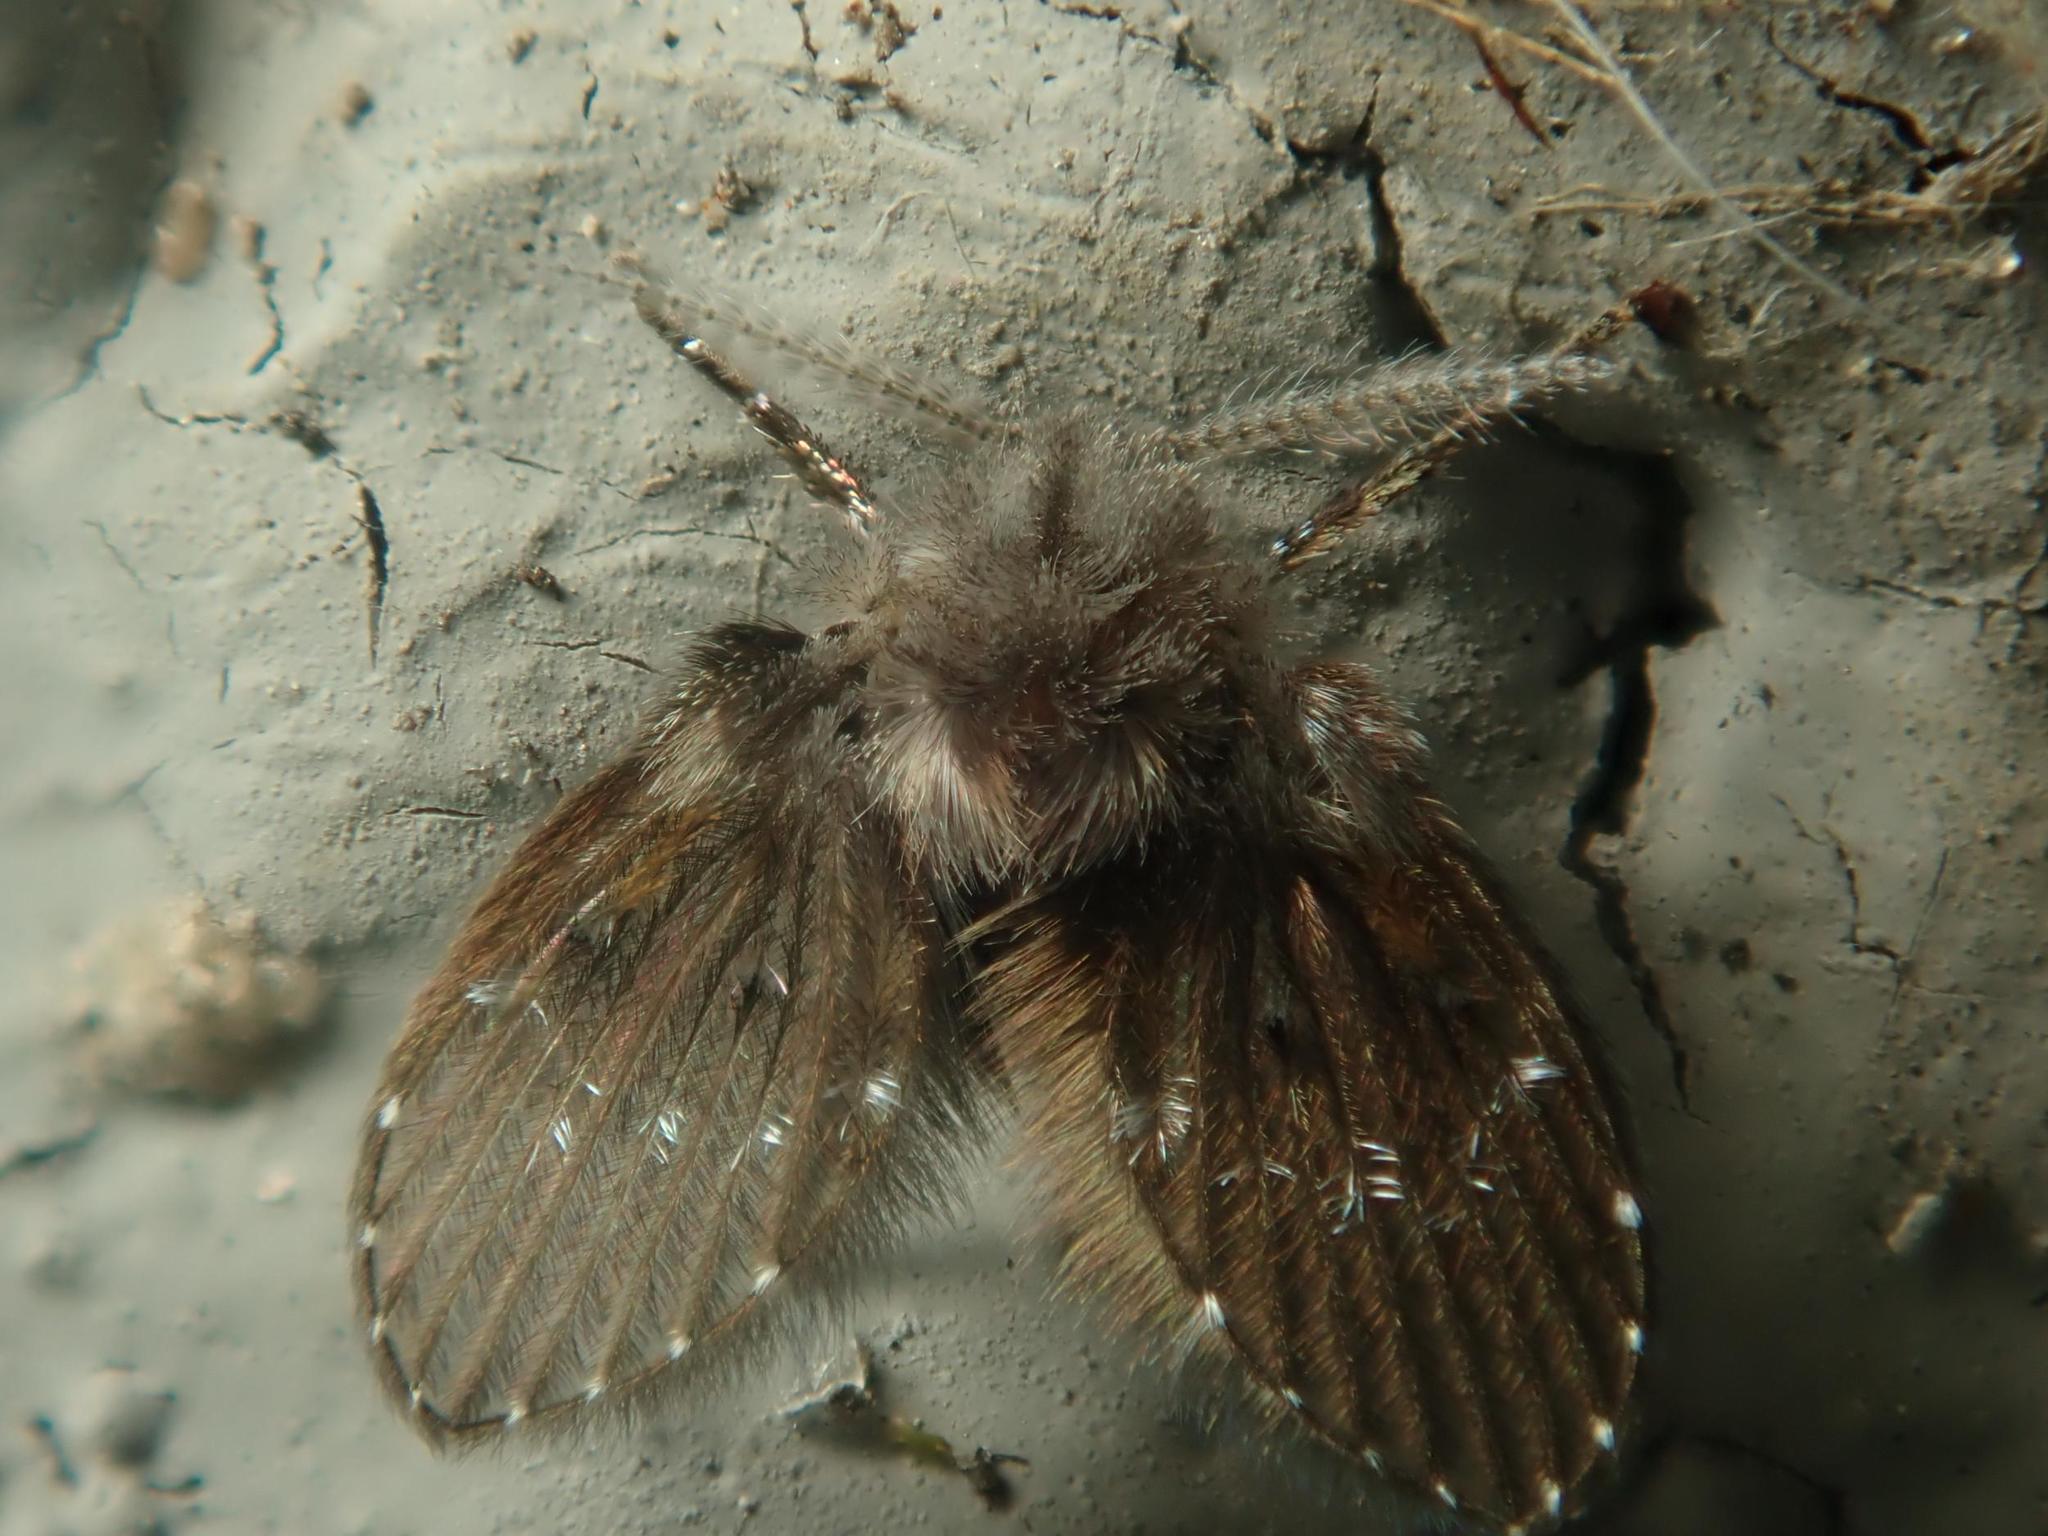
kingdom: Animalia
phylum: Arthropoda
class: Insecta
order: Diptera
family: Psychodidae
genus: Clogmia
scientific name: Clogmia albipunctatus
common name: White-spotted moth fly
